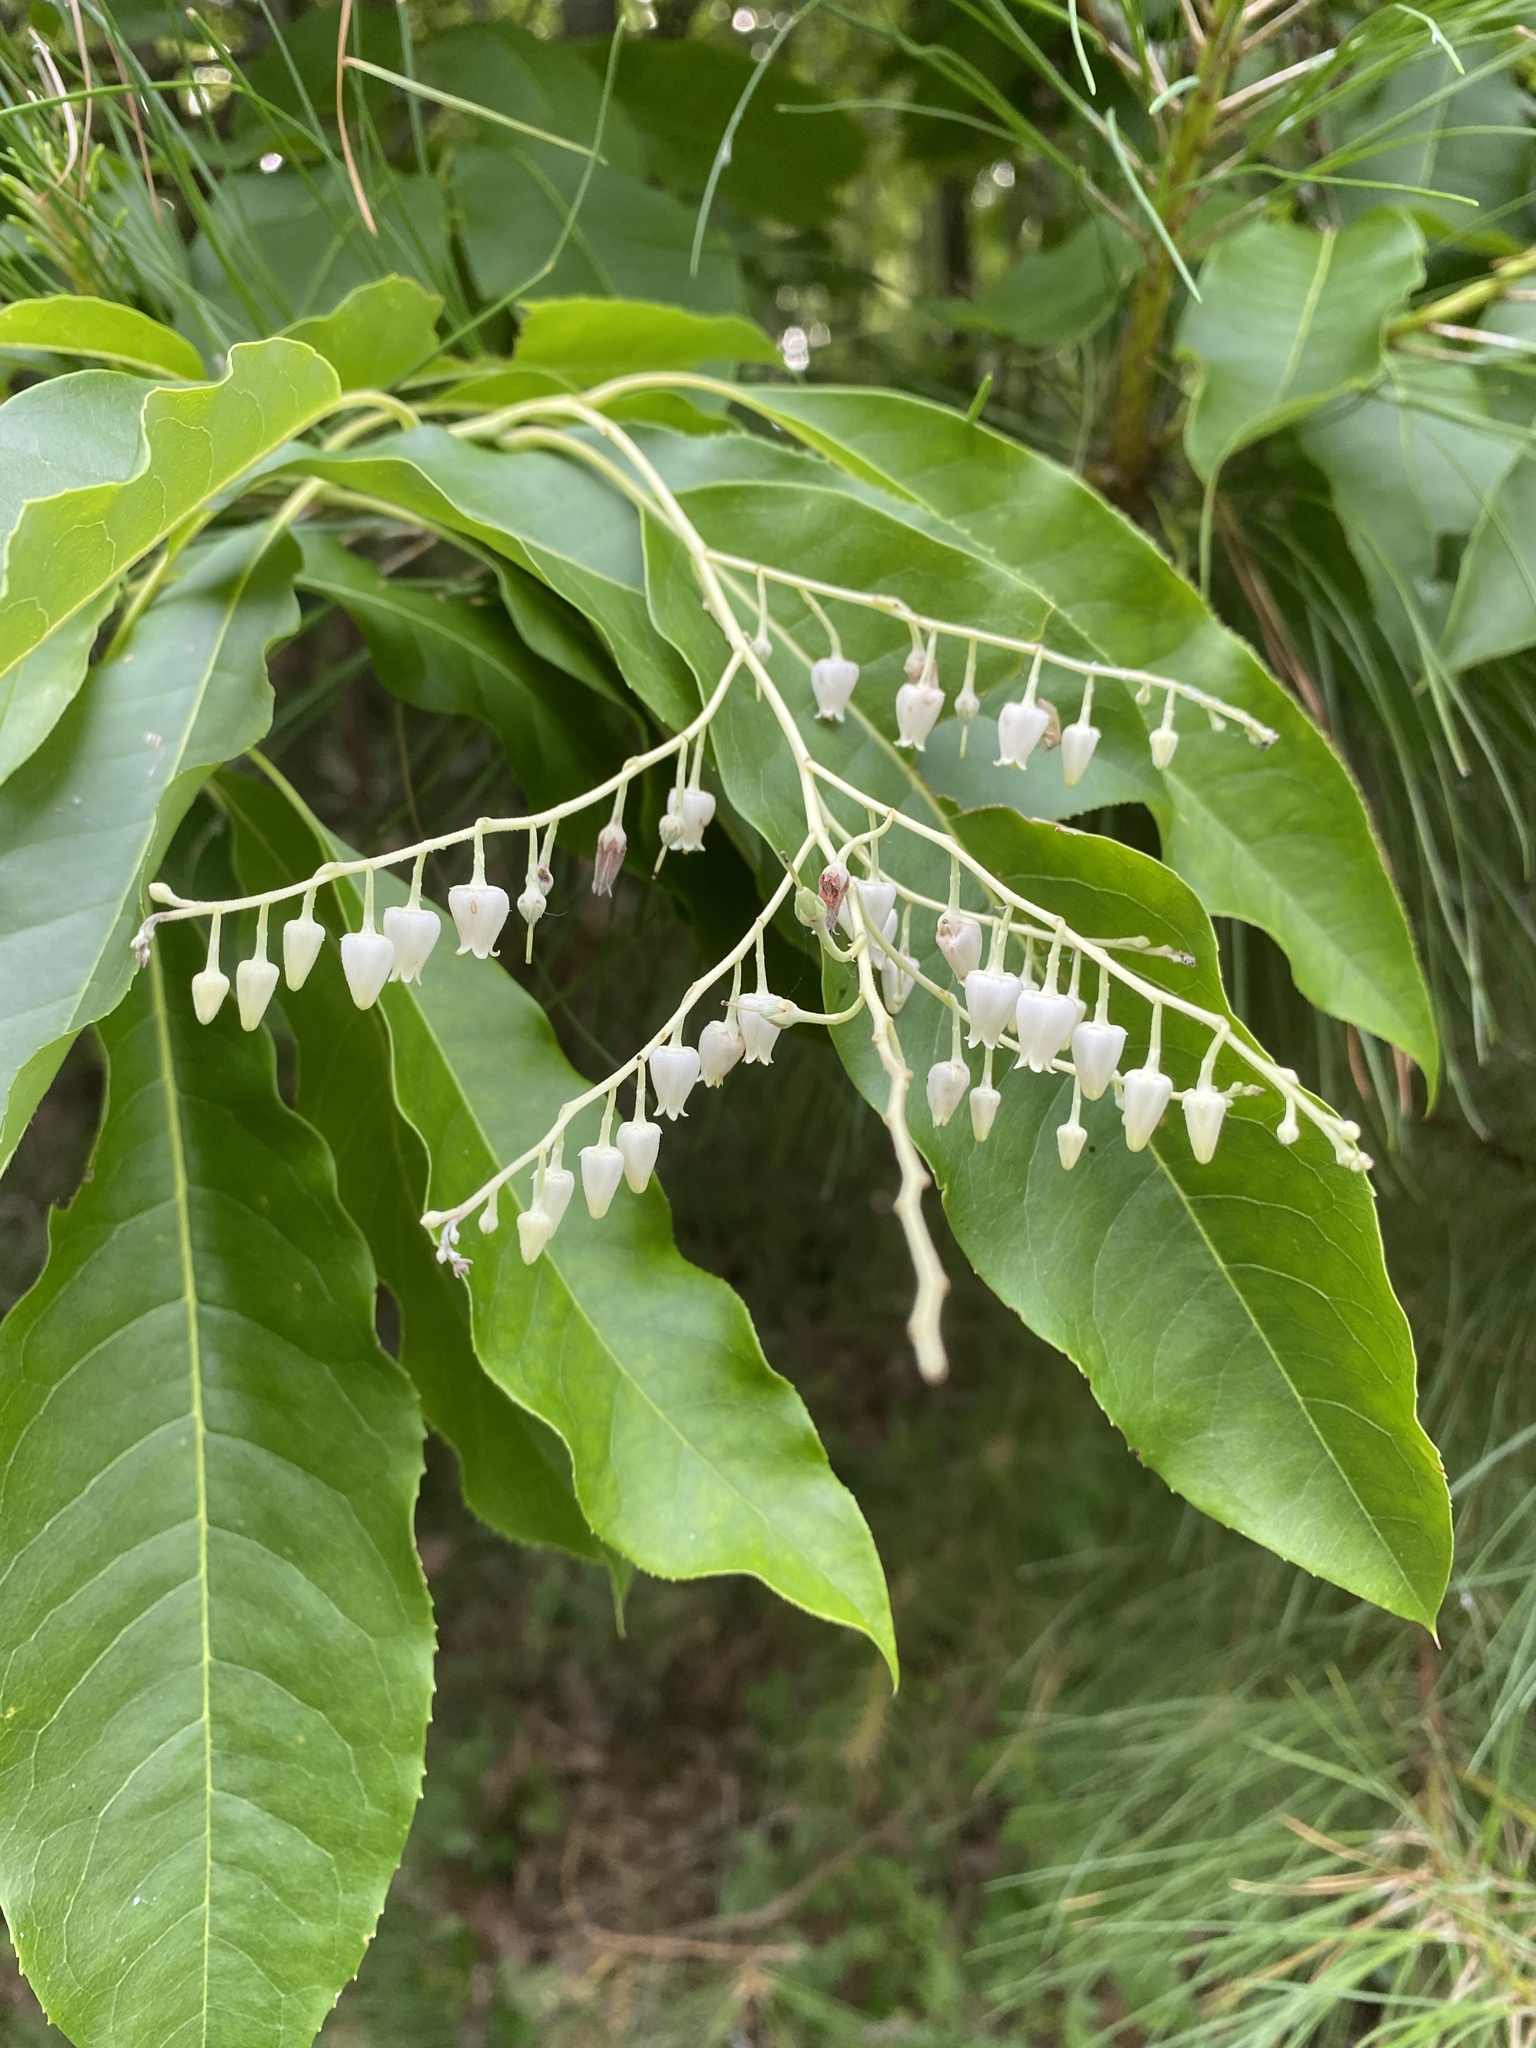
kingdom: Plantae
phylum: Tracheophyta
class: Magnoliopsida
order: Ericales
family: Ericaceae
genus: Oxydendrum
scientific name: Oxydendrum arboreum
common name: Sourwood
